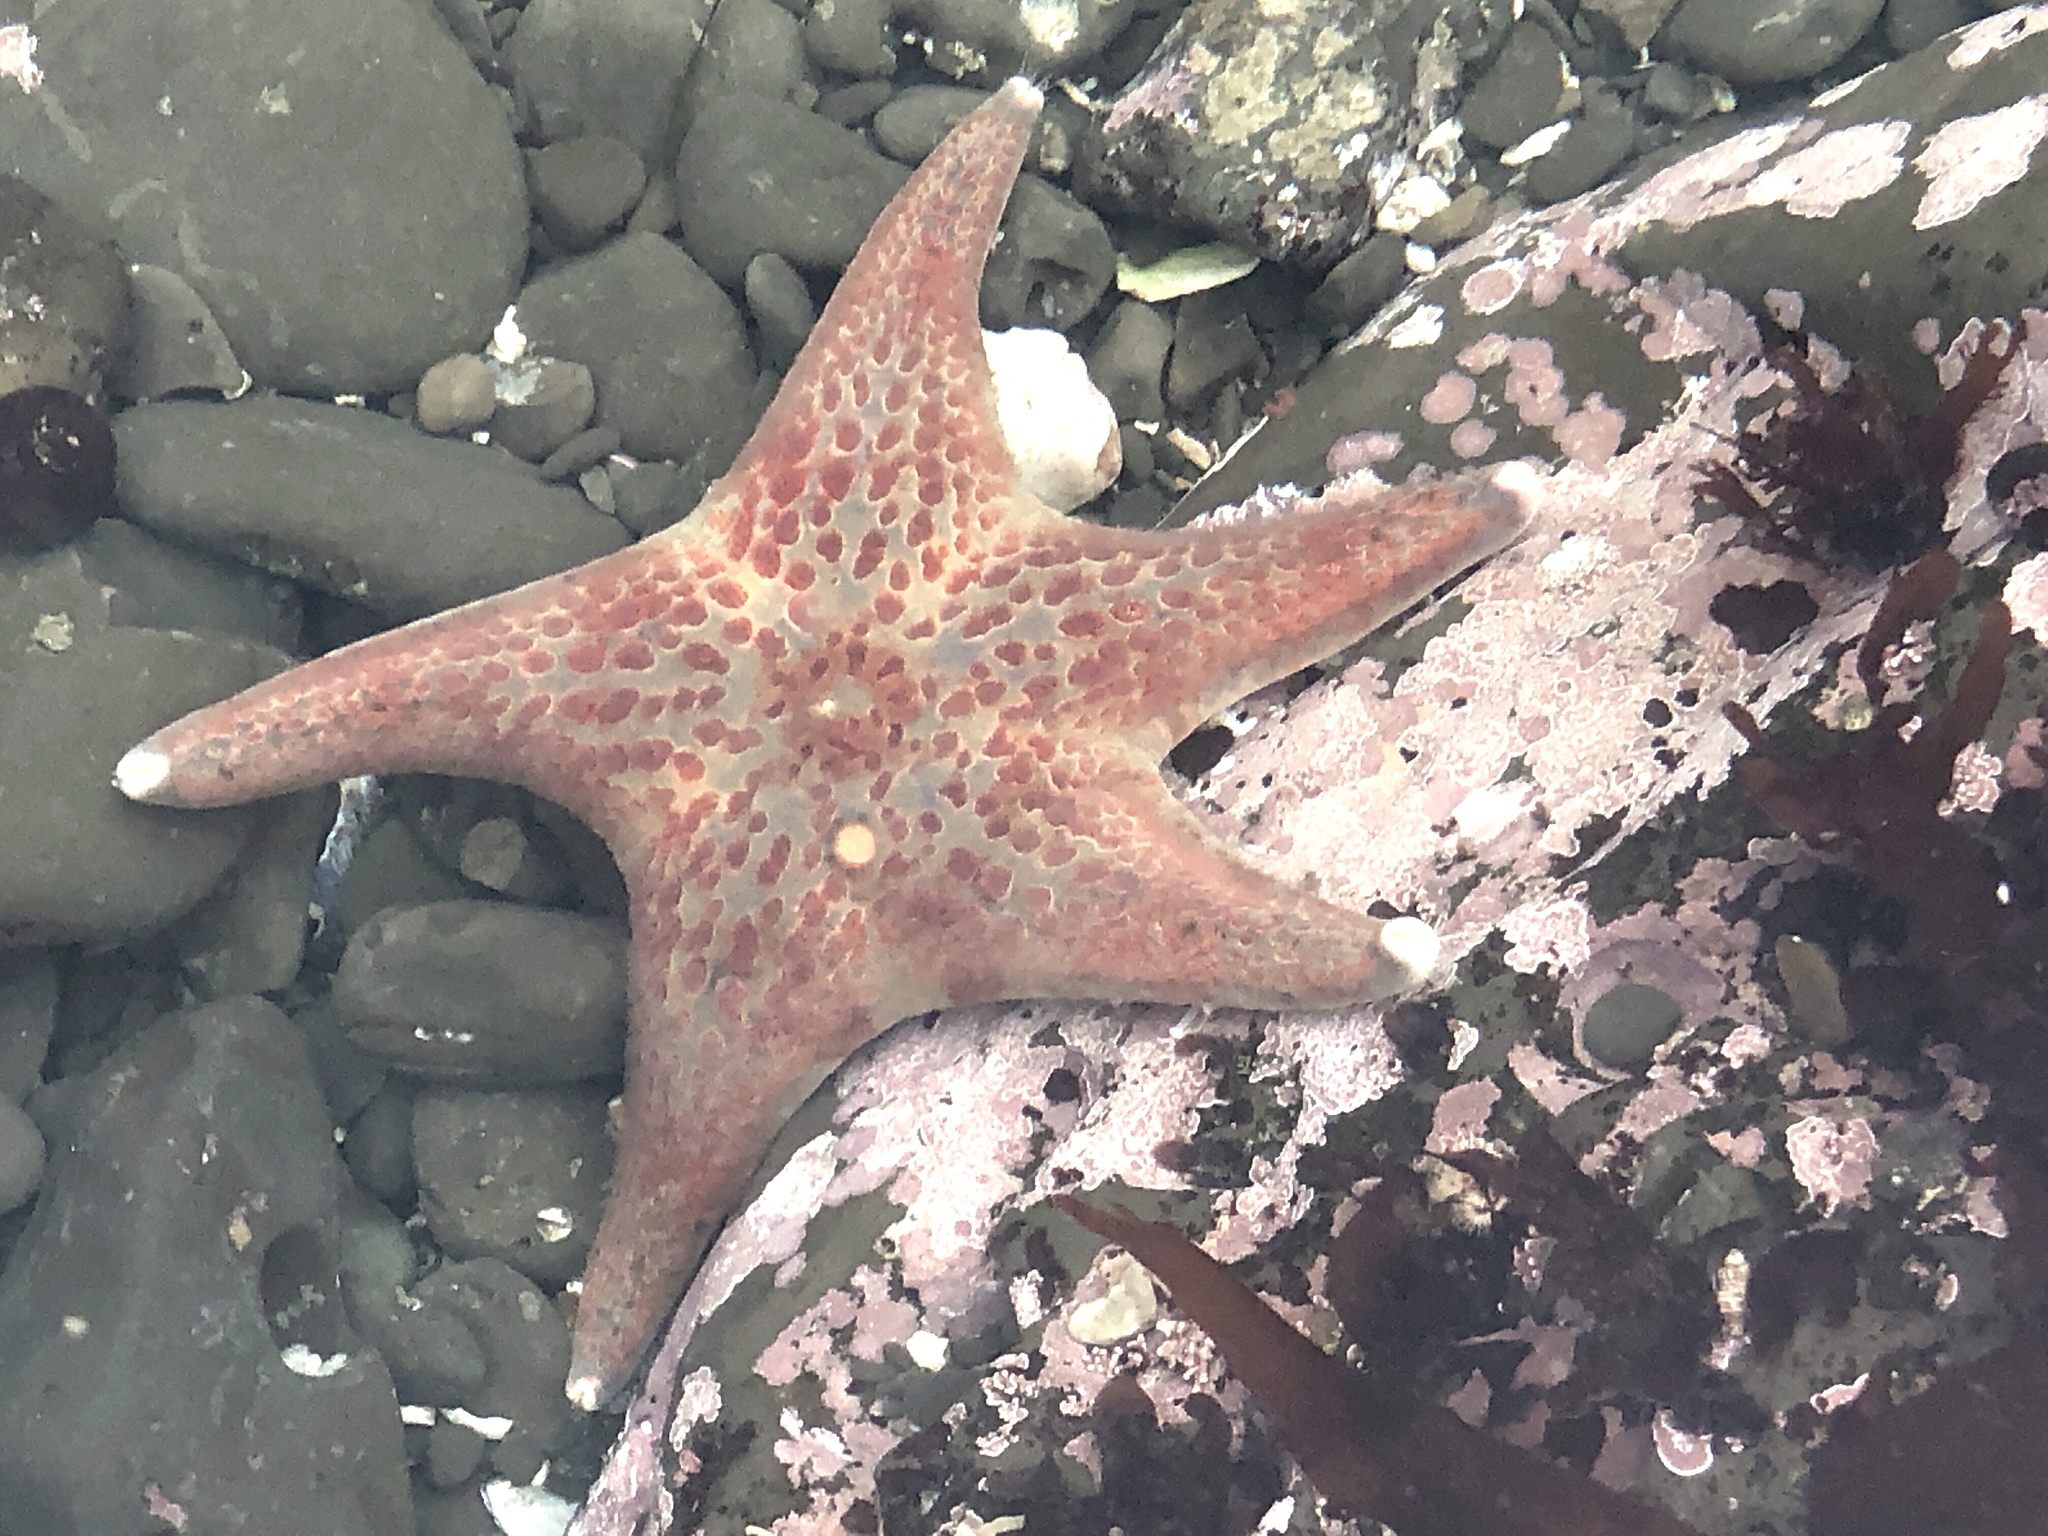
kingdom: Animalia
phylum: Echinodermata
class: Asteroidea
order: Valvatida
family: Asteropseidae
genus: Dermasterias
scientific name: Dermasterias imbricata
